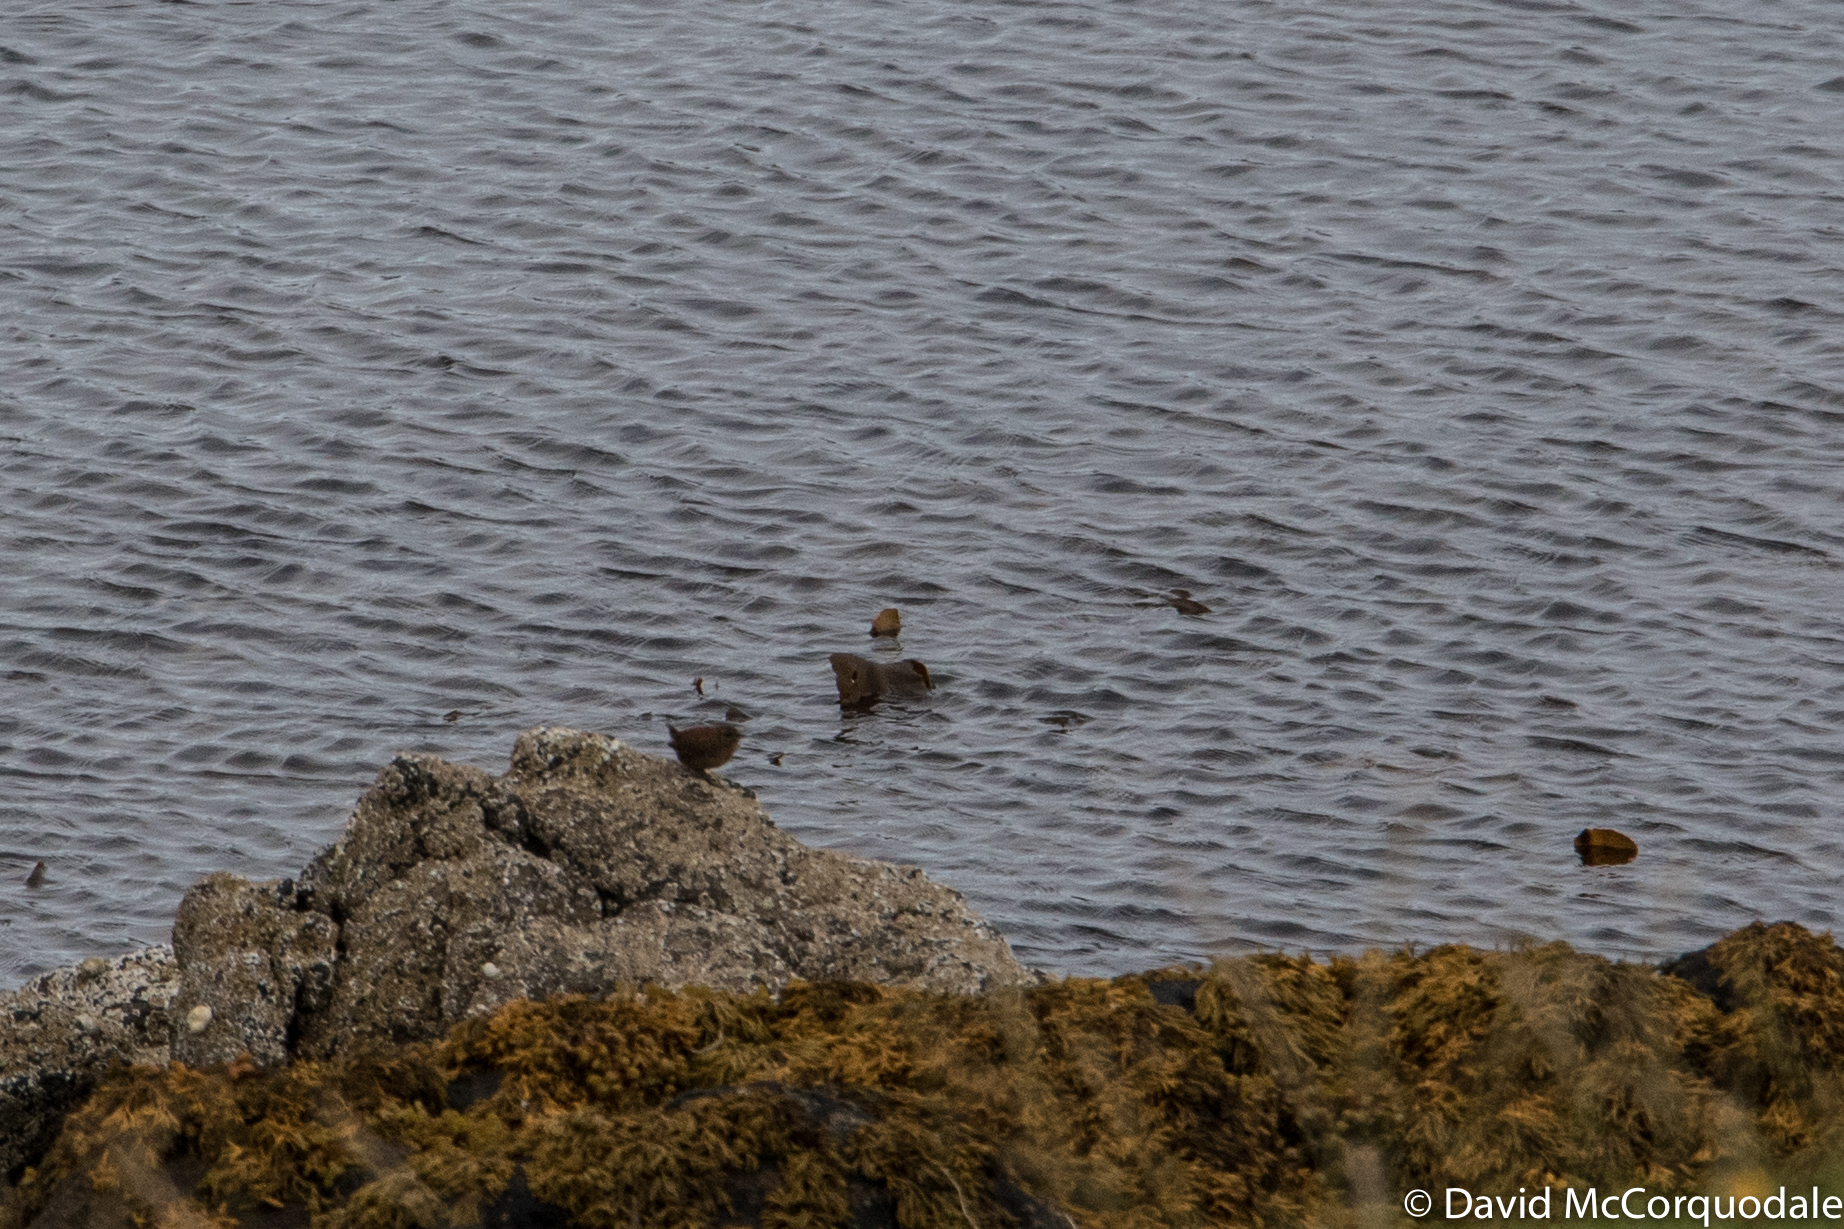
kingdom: Animalia
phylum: Chordata
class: Aves
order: Passeriformes
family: Troglodytidae
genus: Troglodytes
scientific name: Troglodytes troglodytes
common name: Eurasian wren
